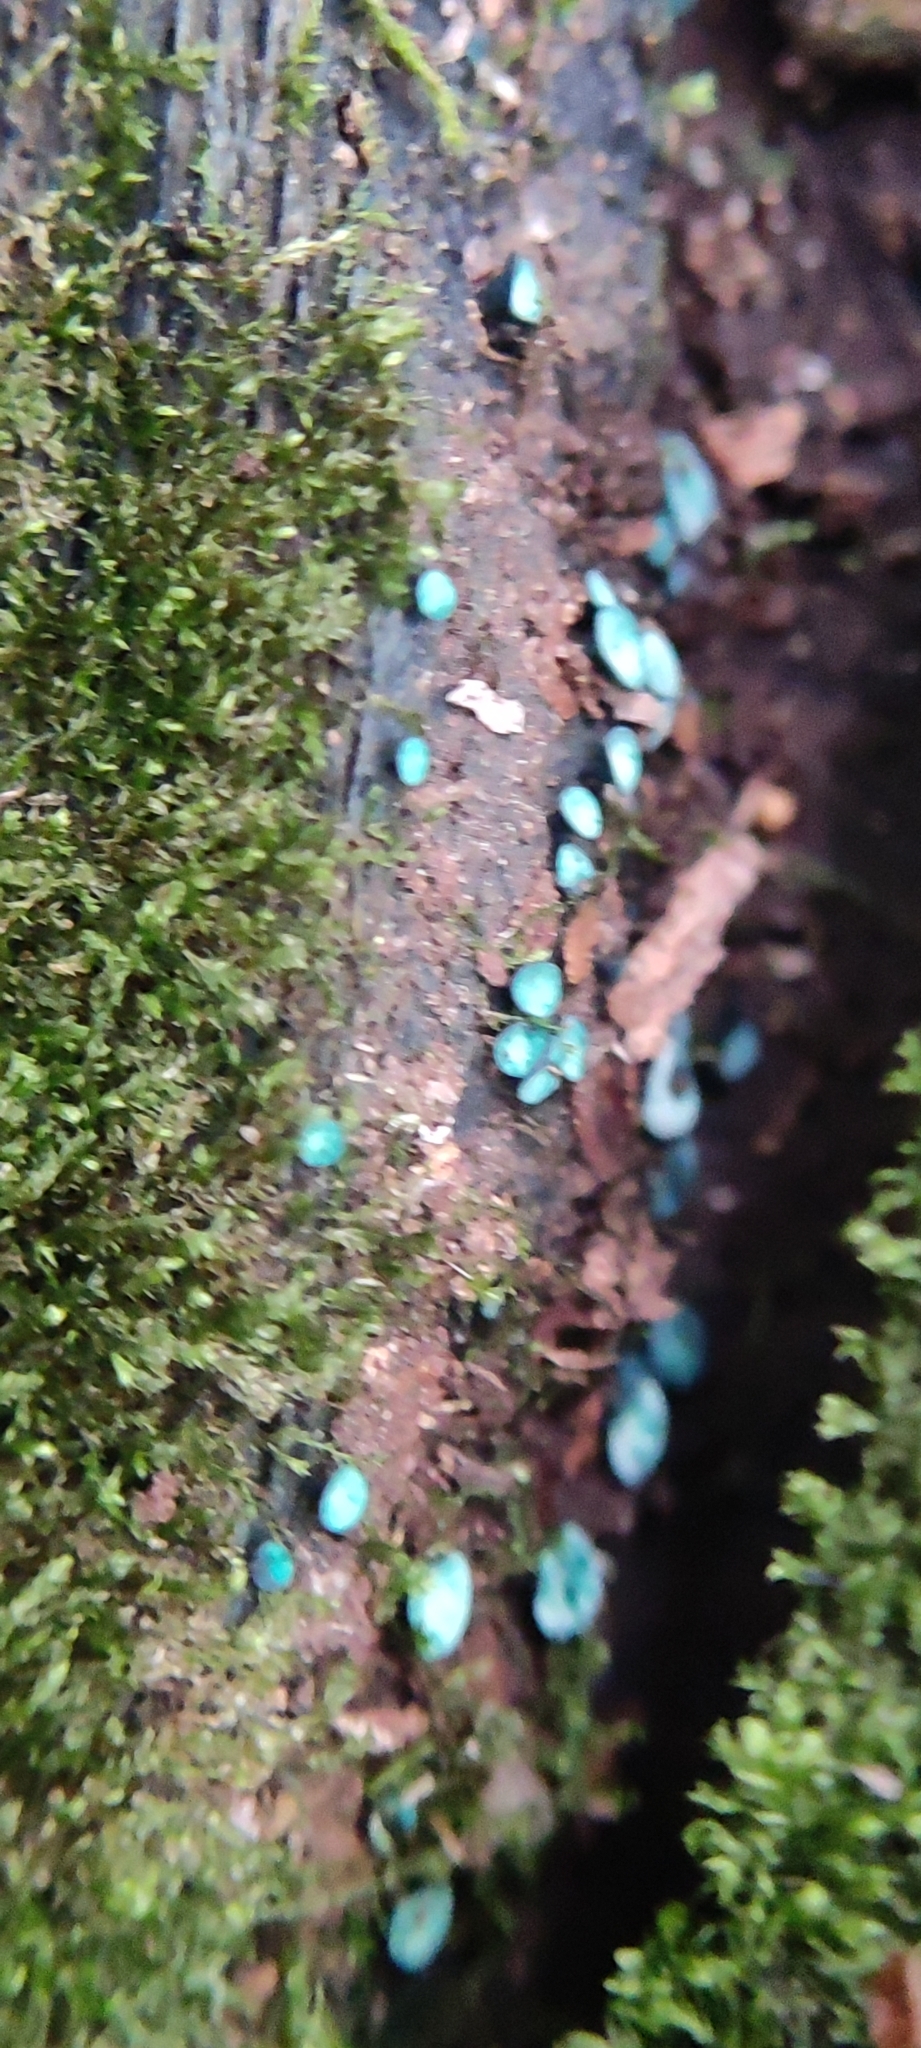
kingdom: Fungi
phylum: Ascomycota
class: Leotiomycetes
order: Helotiales
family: Chlorociboriaceae
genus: Chlorociboria
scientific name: Chlorociboria aeruginascens
